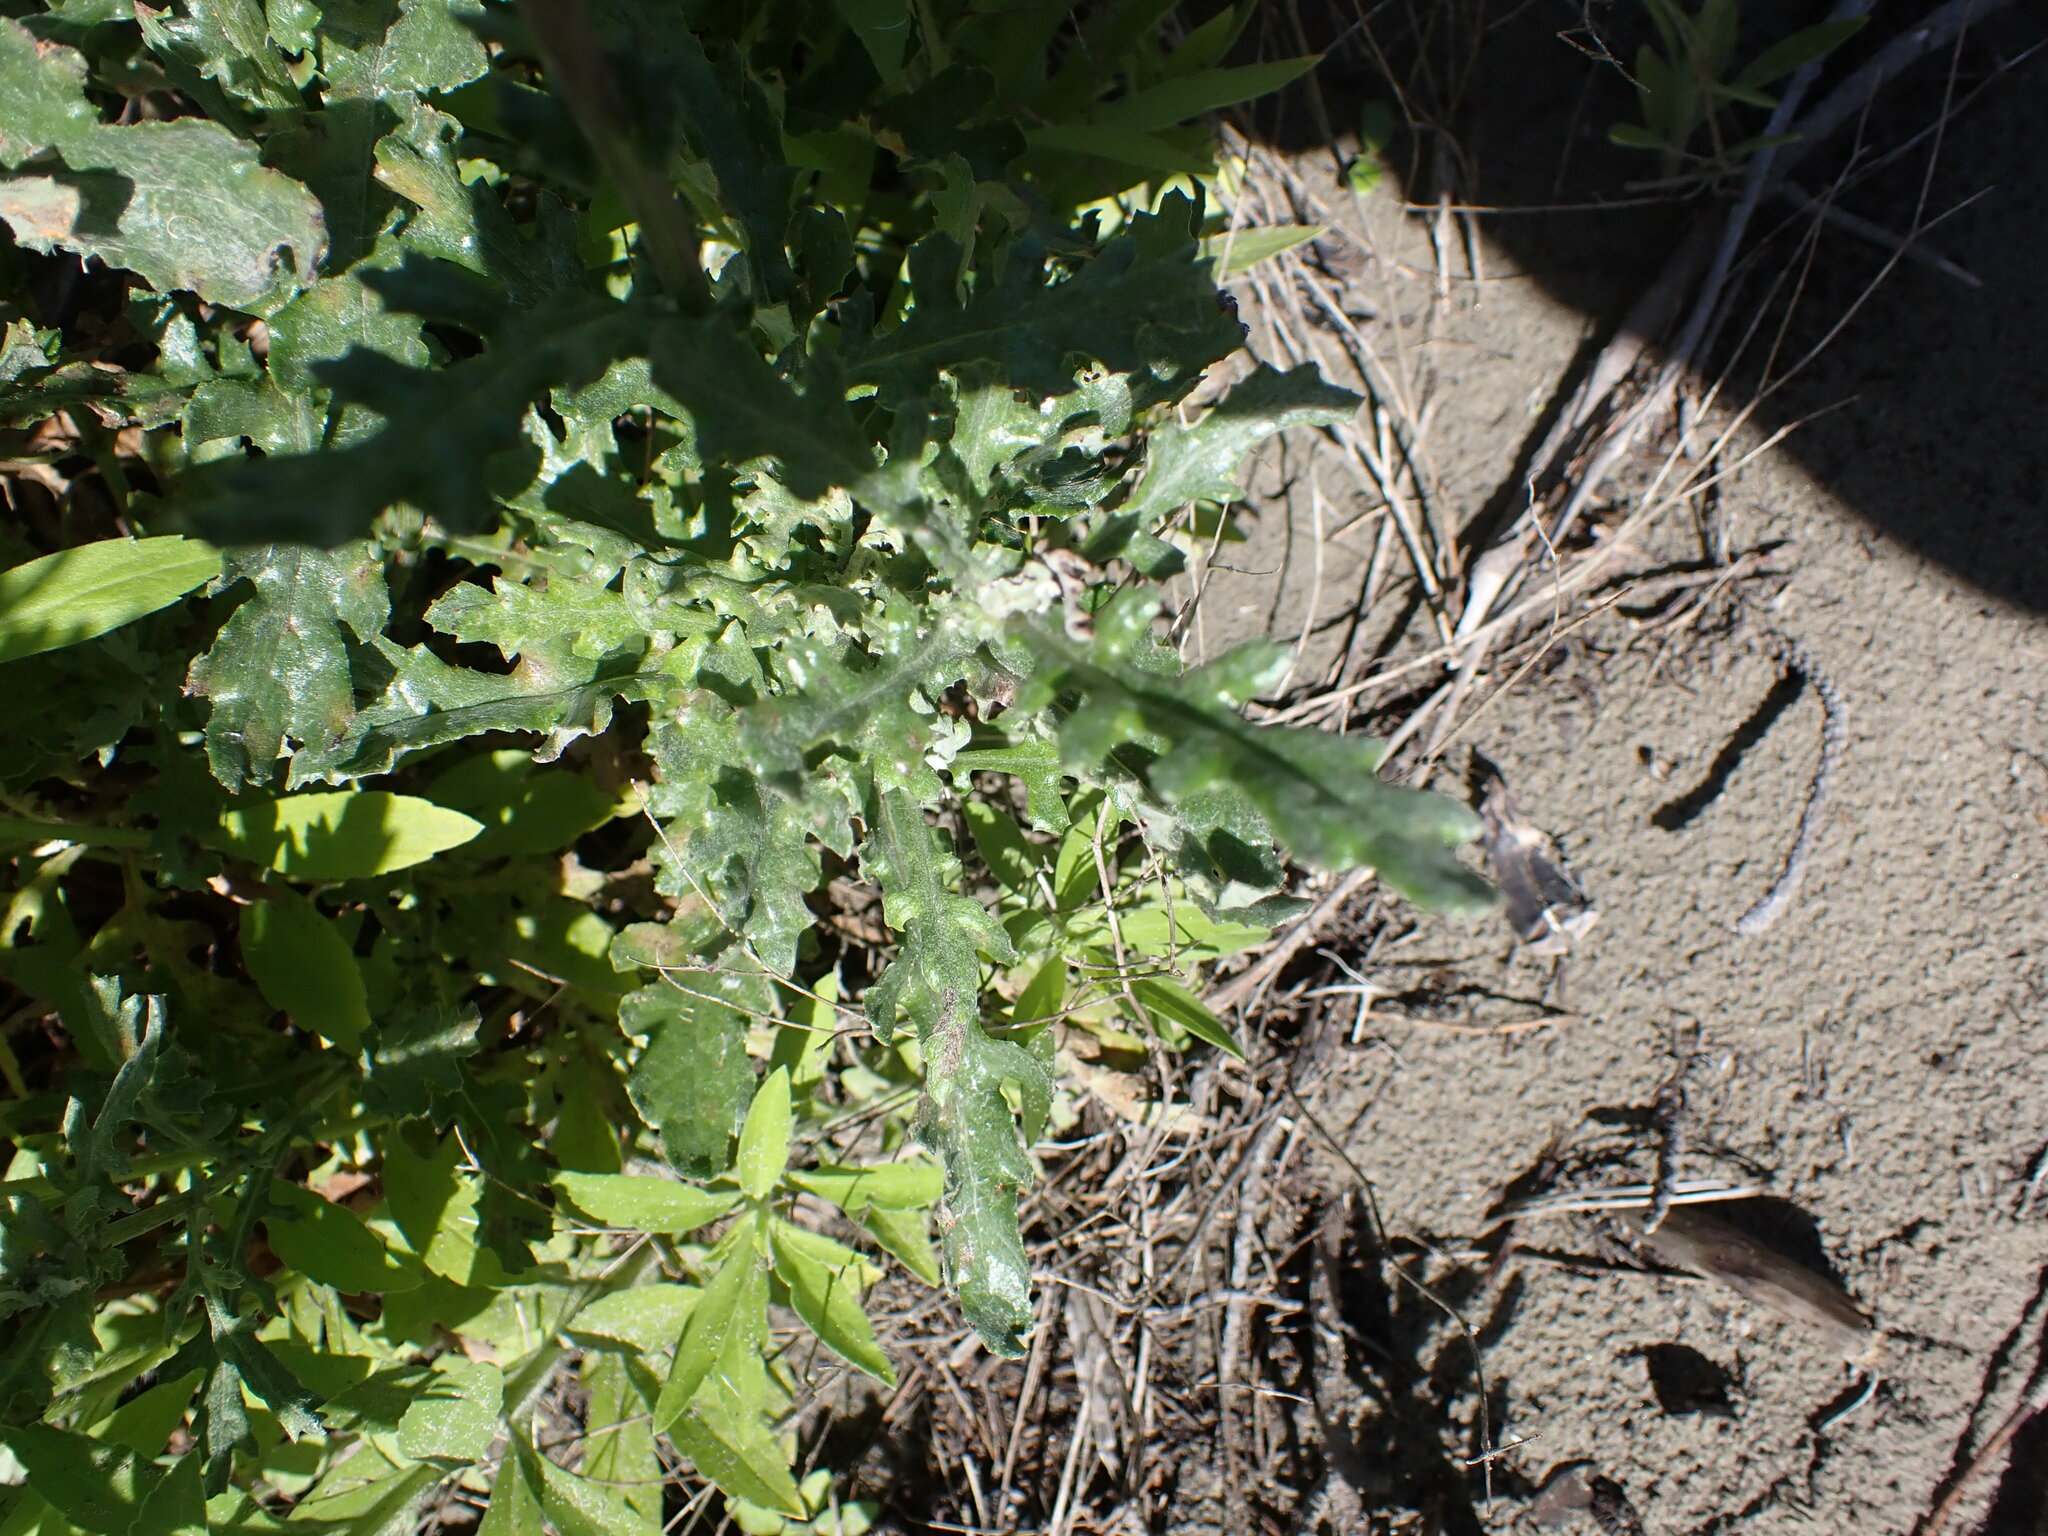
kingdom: Plantae
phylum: Tracheophyta
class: Magnoliopsida
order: Asterales
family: Asteraceae
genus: Senecio
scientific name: Senecio glomeratus
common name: Cutleaf burnweed
